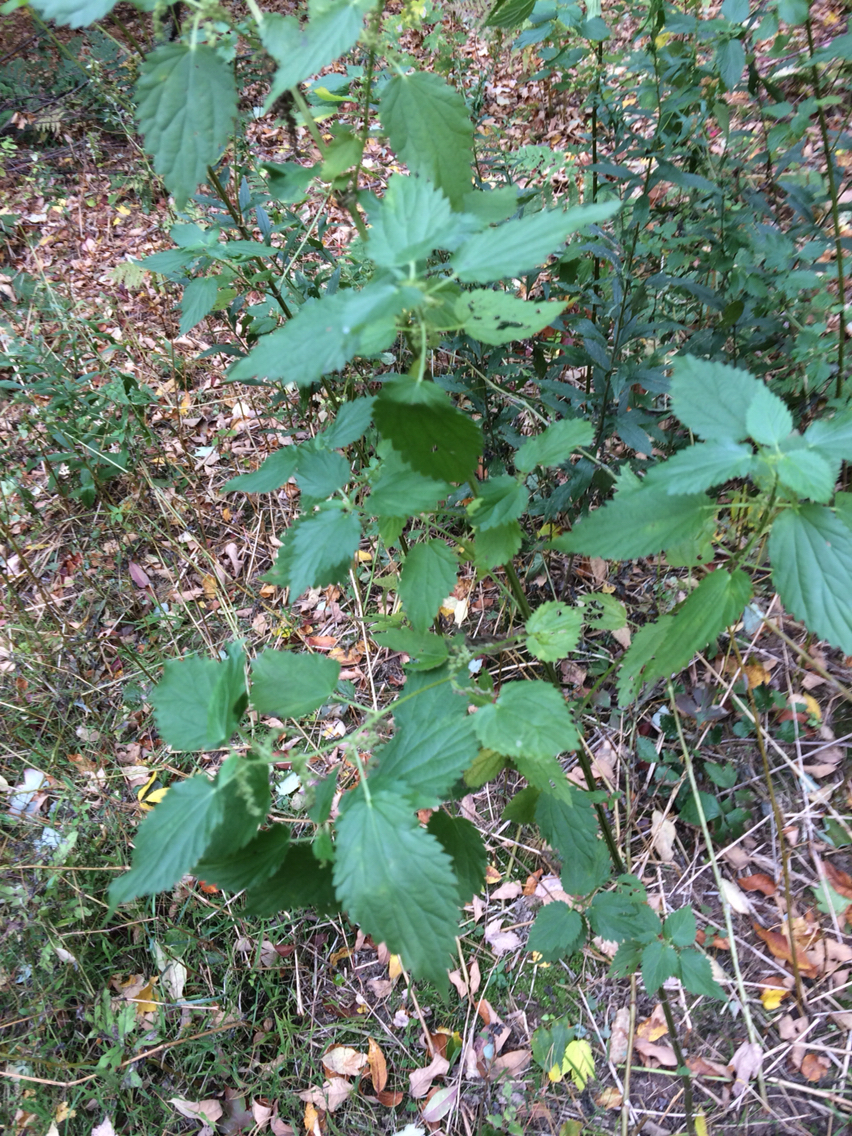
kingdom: Plantae
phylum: Tracheophyta
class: Magnoliopsida
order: Rosales
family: Urticaceae
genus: Urtica
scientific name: Urtica dioica
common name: Common nettle
